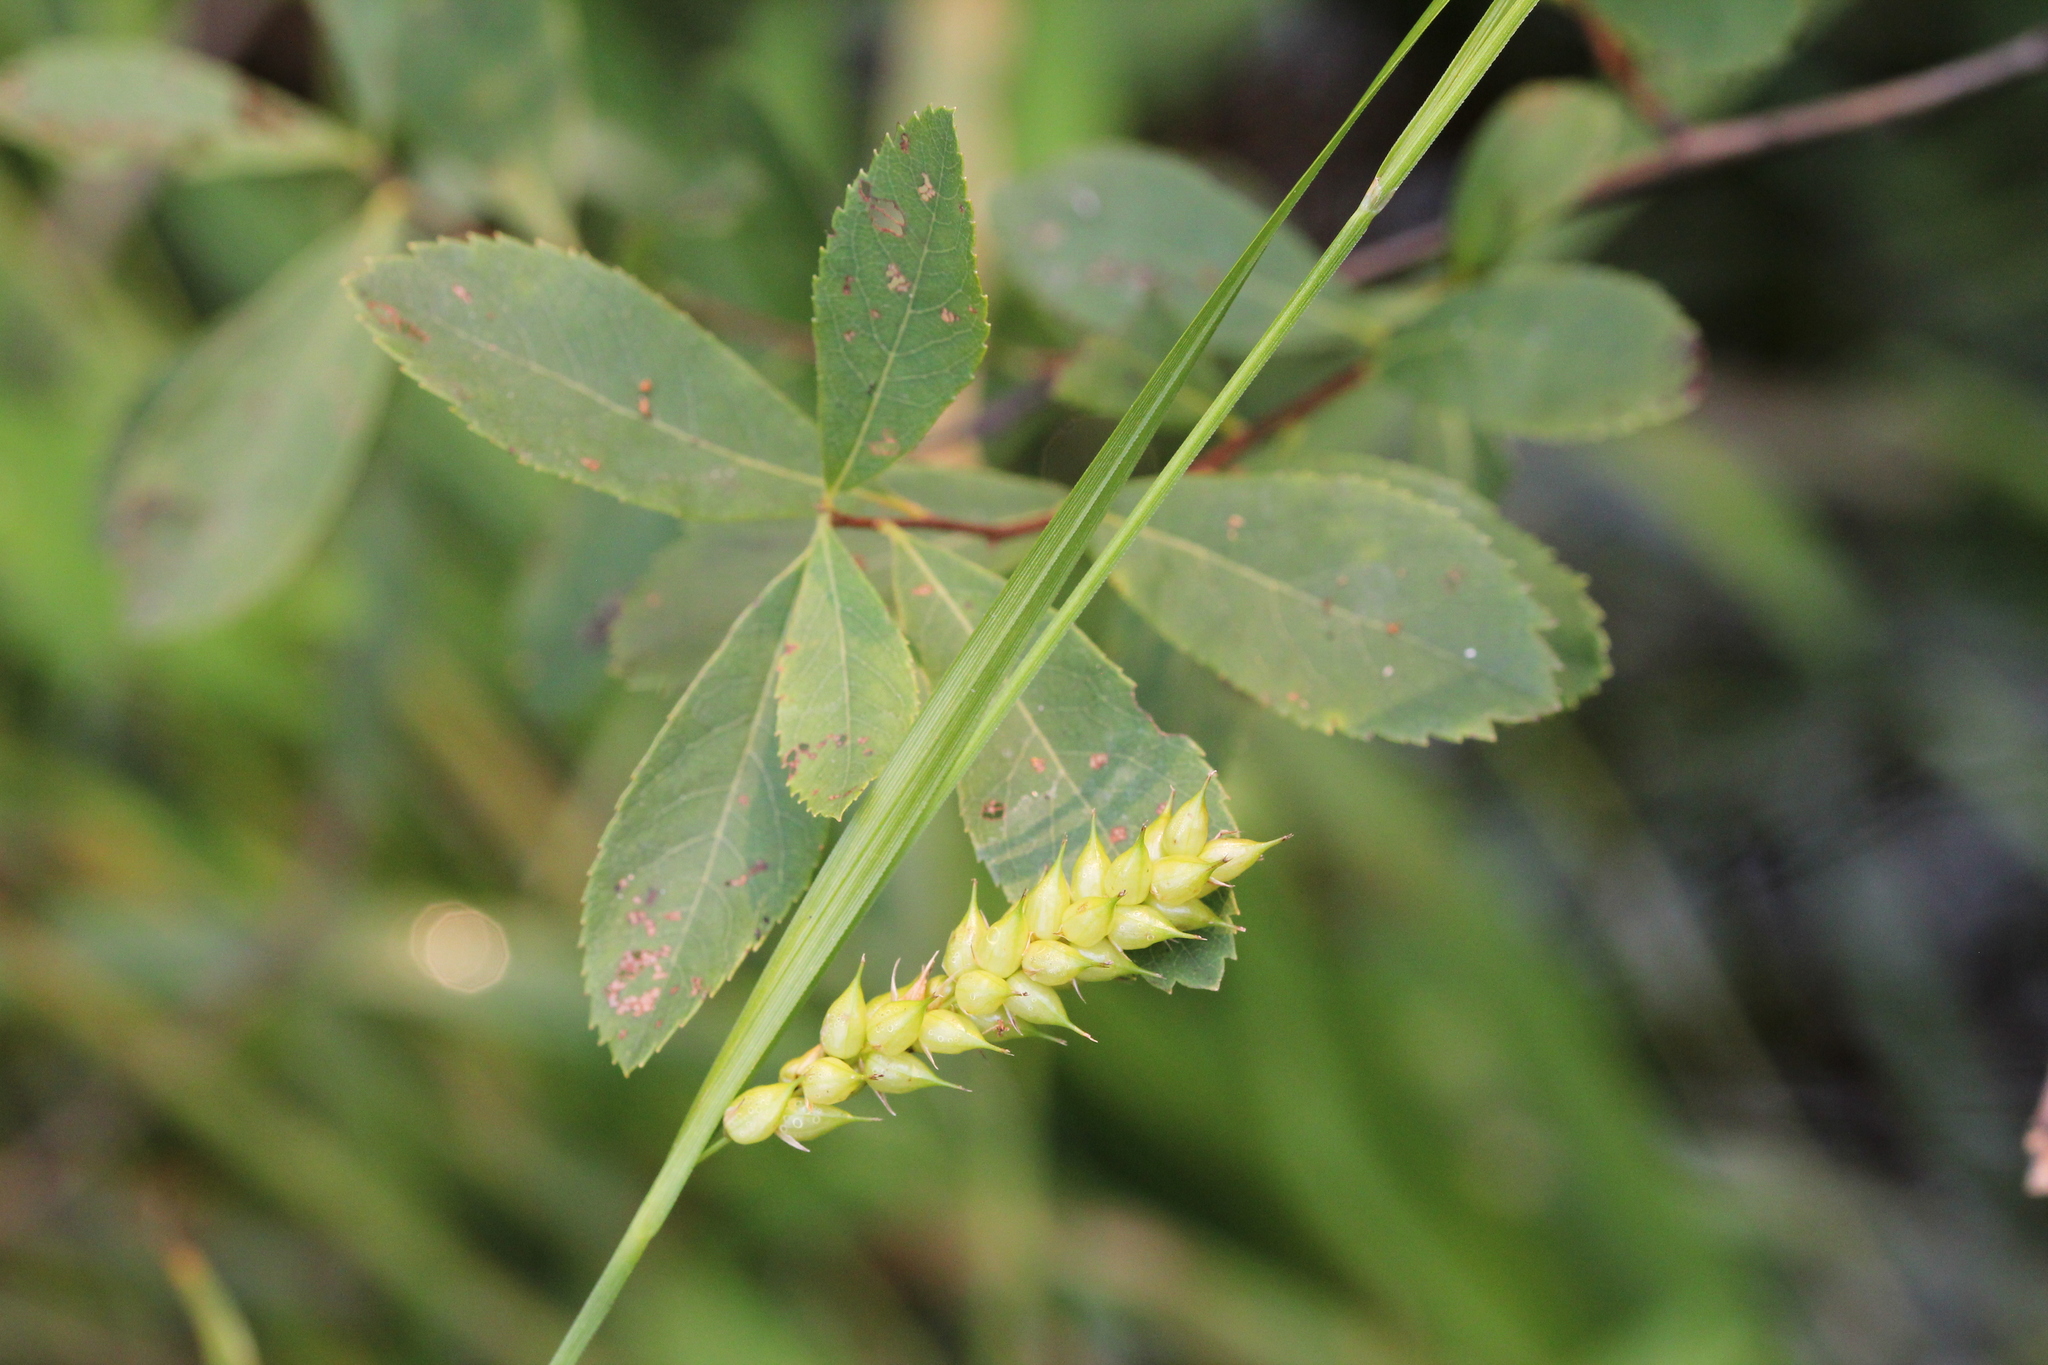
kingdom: Plantae
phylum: Tracheophyta
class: Liliopsida
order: Poales
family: Cyperaceae
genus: Carex
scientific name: Carex vesicaria
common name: Bladder-sedge
